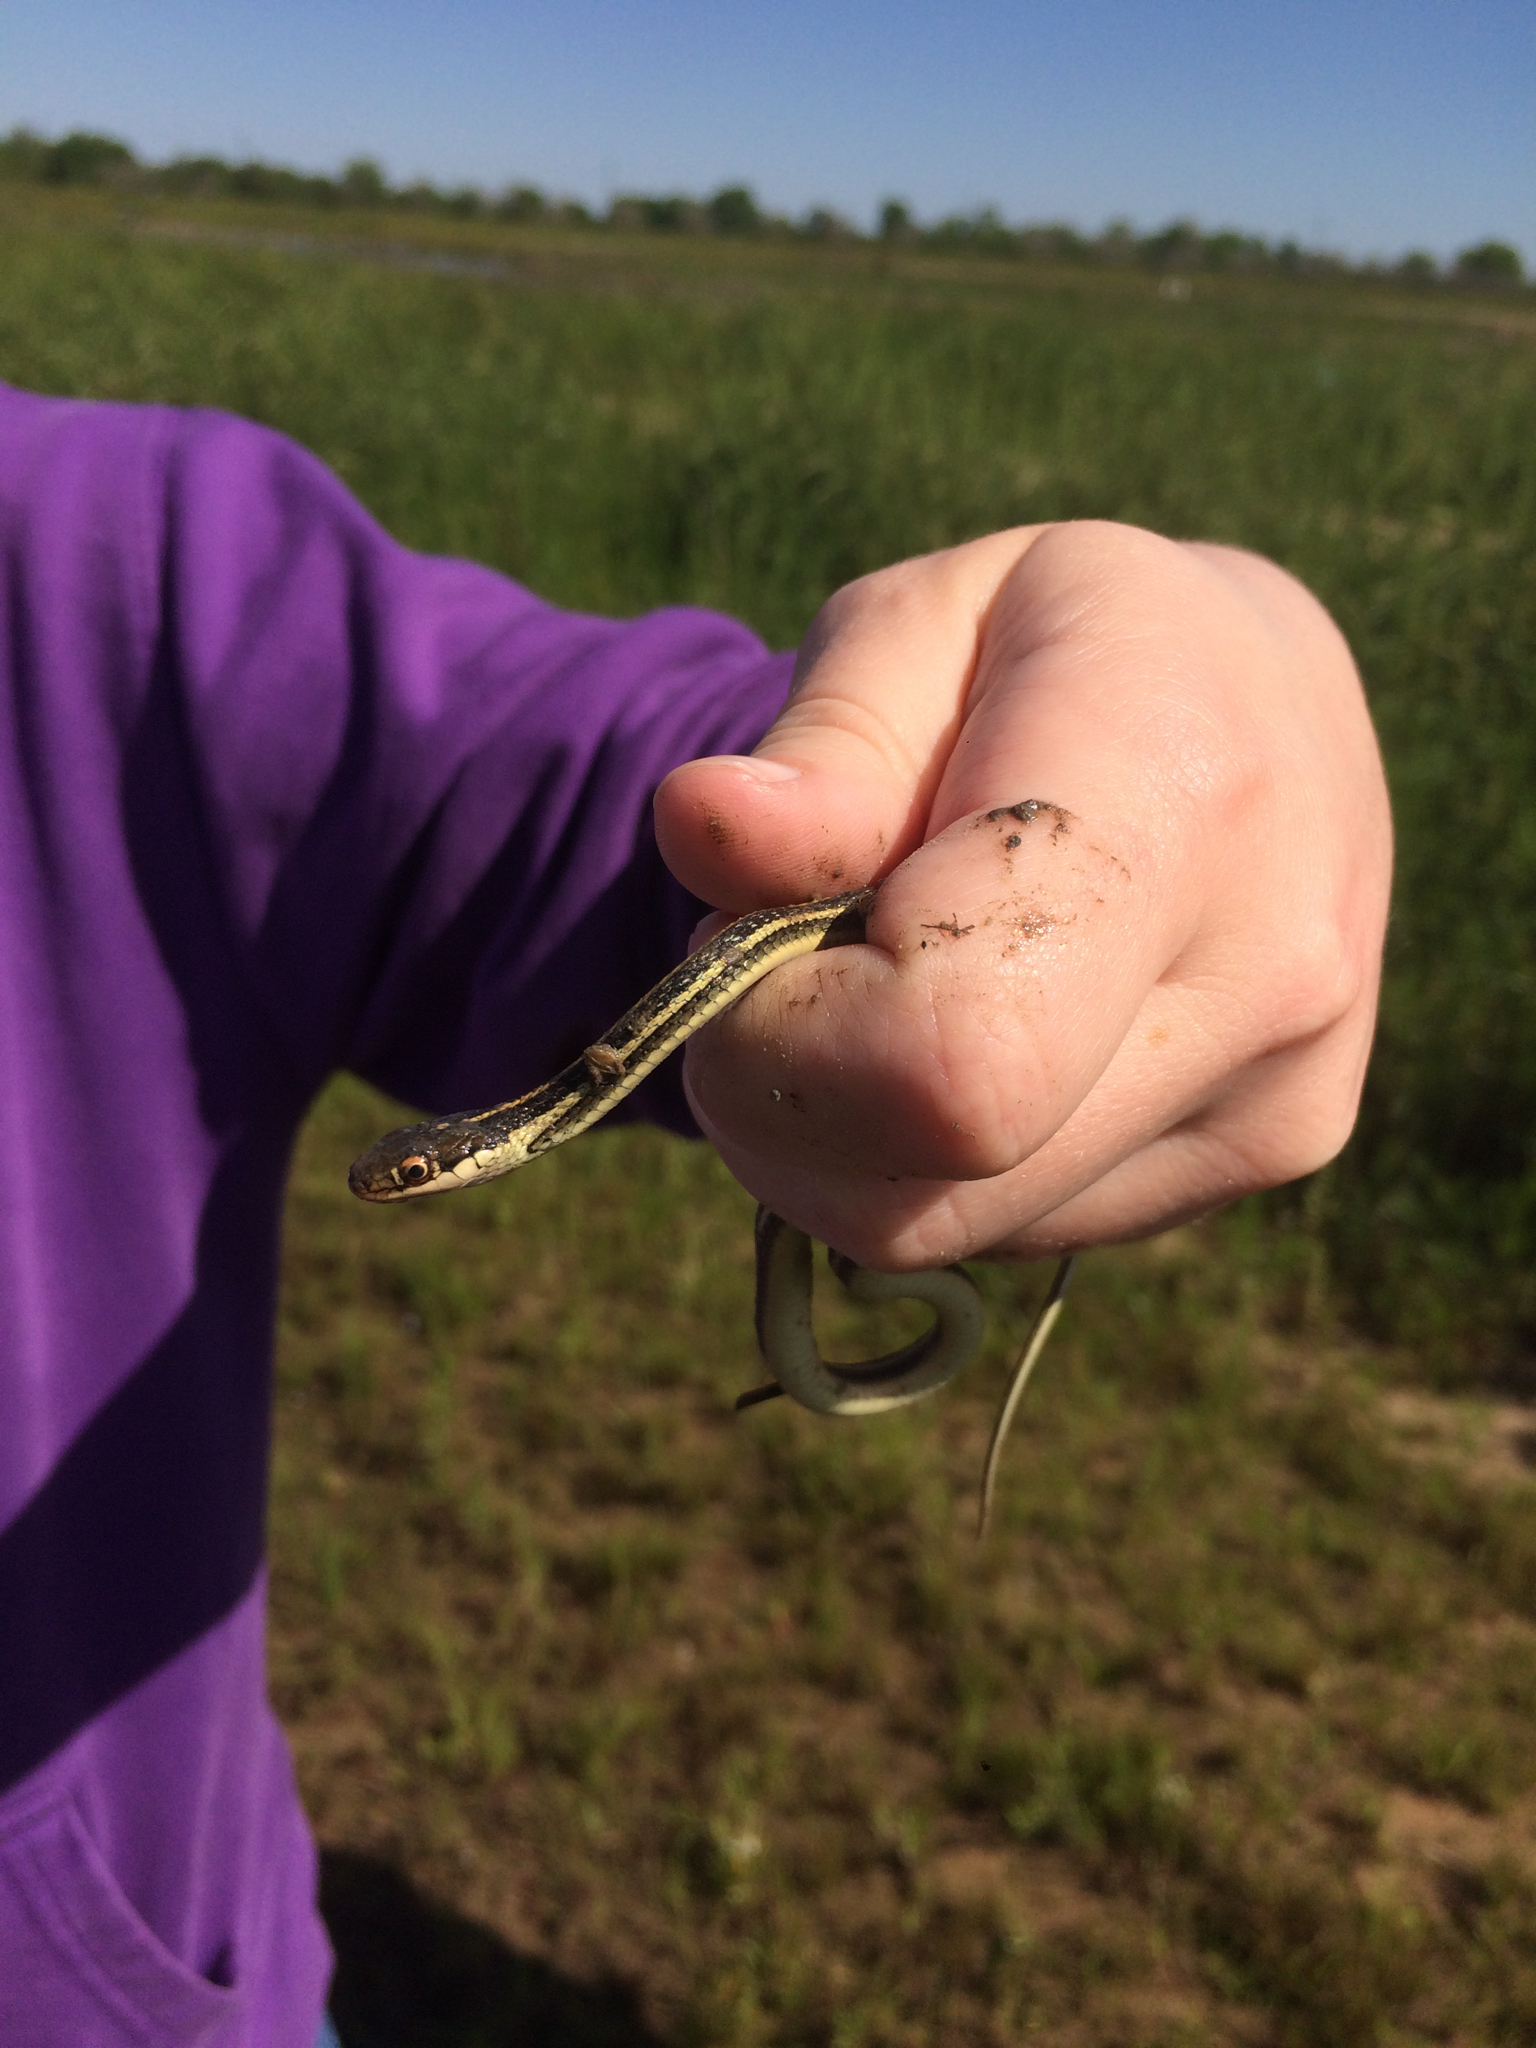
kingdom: Animalia
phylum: Chordata
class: Squamata
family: Colubridae
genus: Thamnophis
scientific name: Thamnophis proximus
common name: Western ribbon snake
